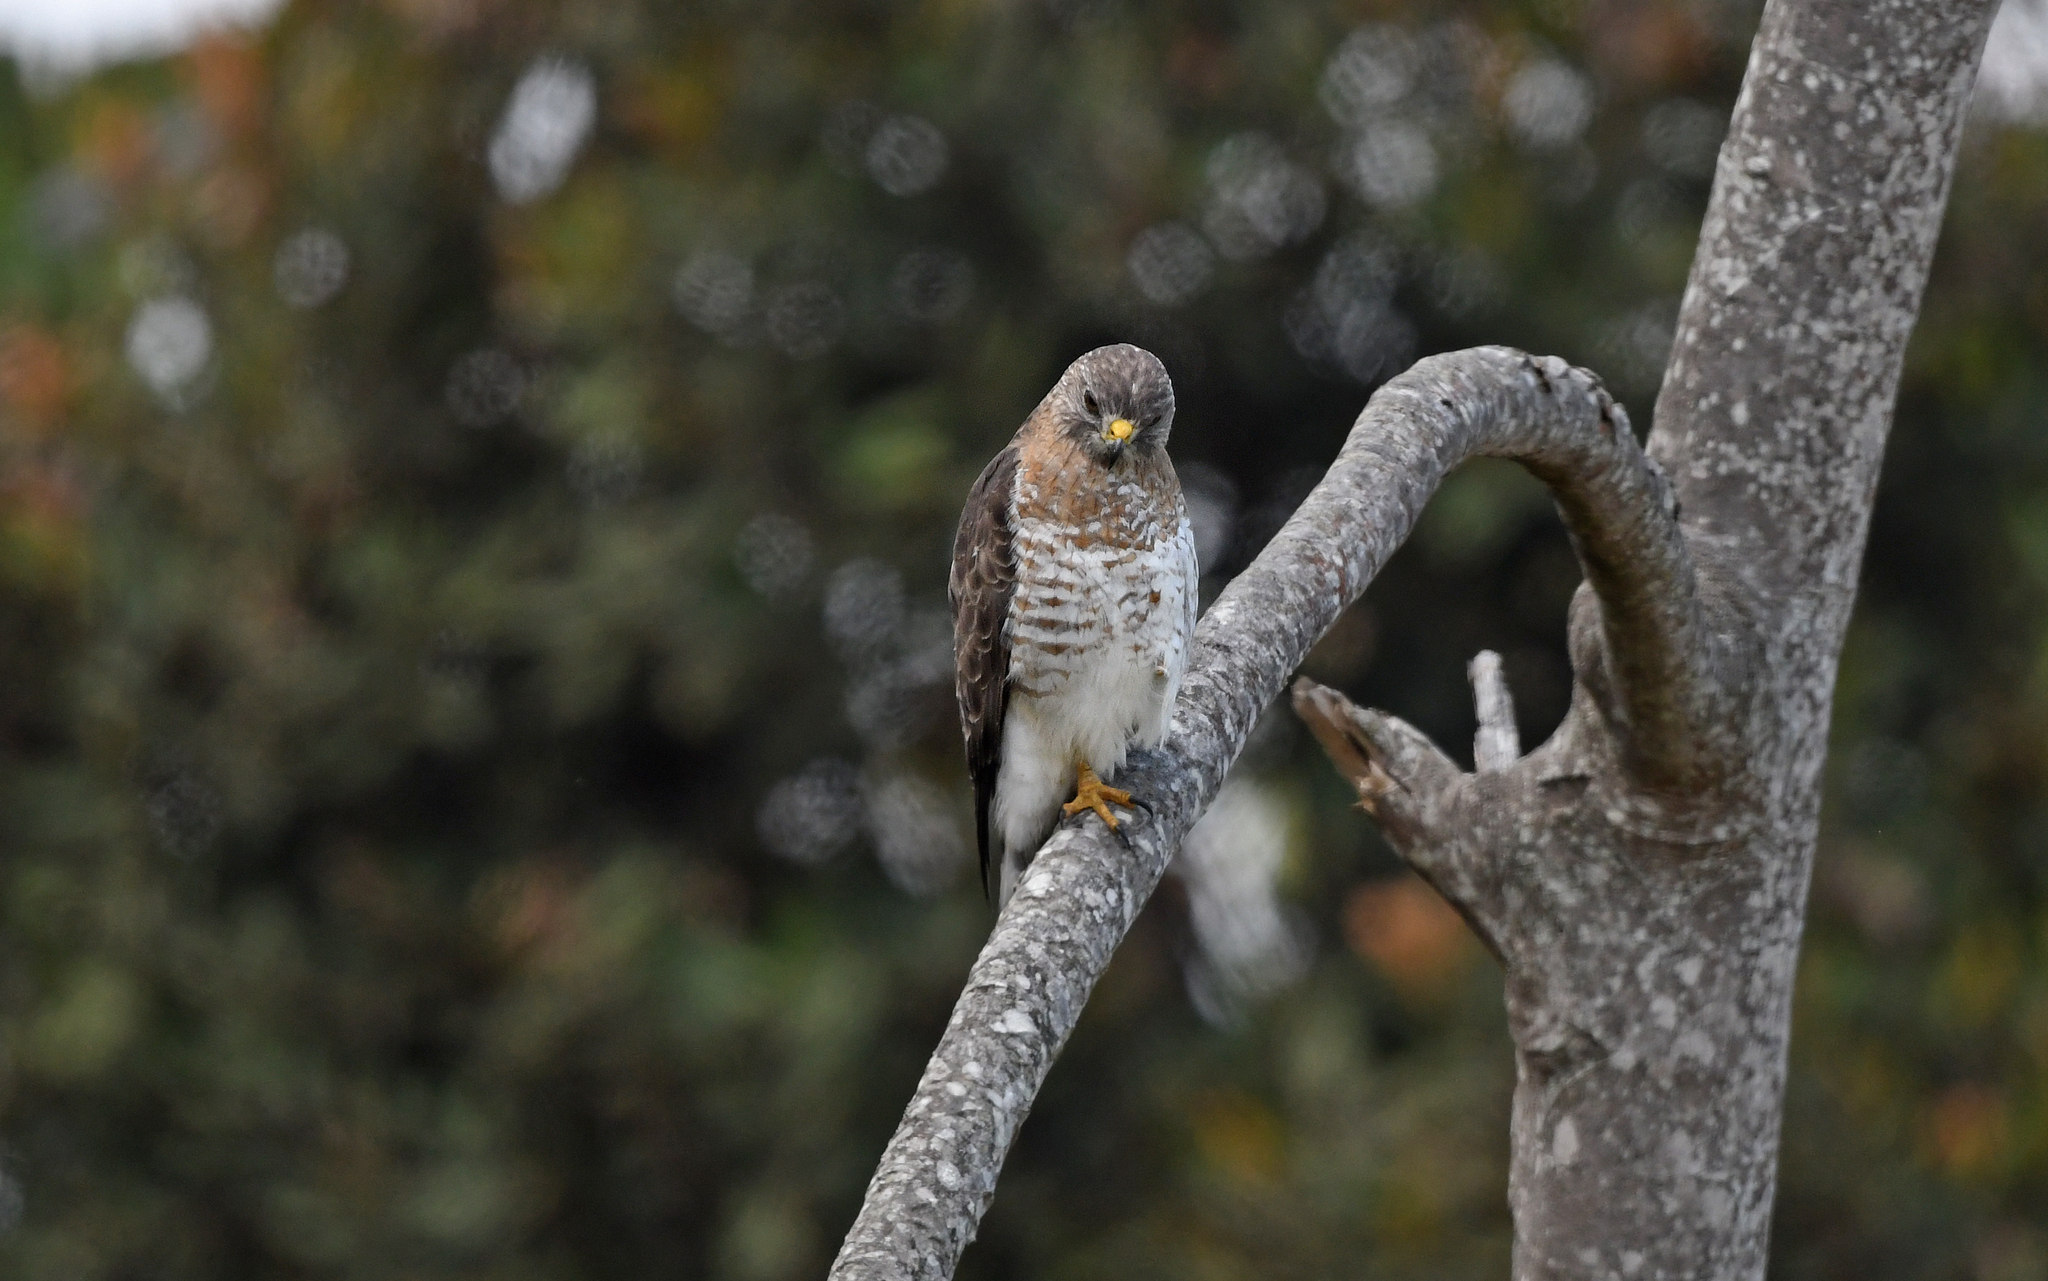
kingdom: Animalia
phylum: Chordata
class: Aves
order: Accipitriformes
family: Accipitridae
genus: Buteo
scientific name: Buteo platypterus
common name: Broad-winged hawk
